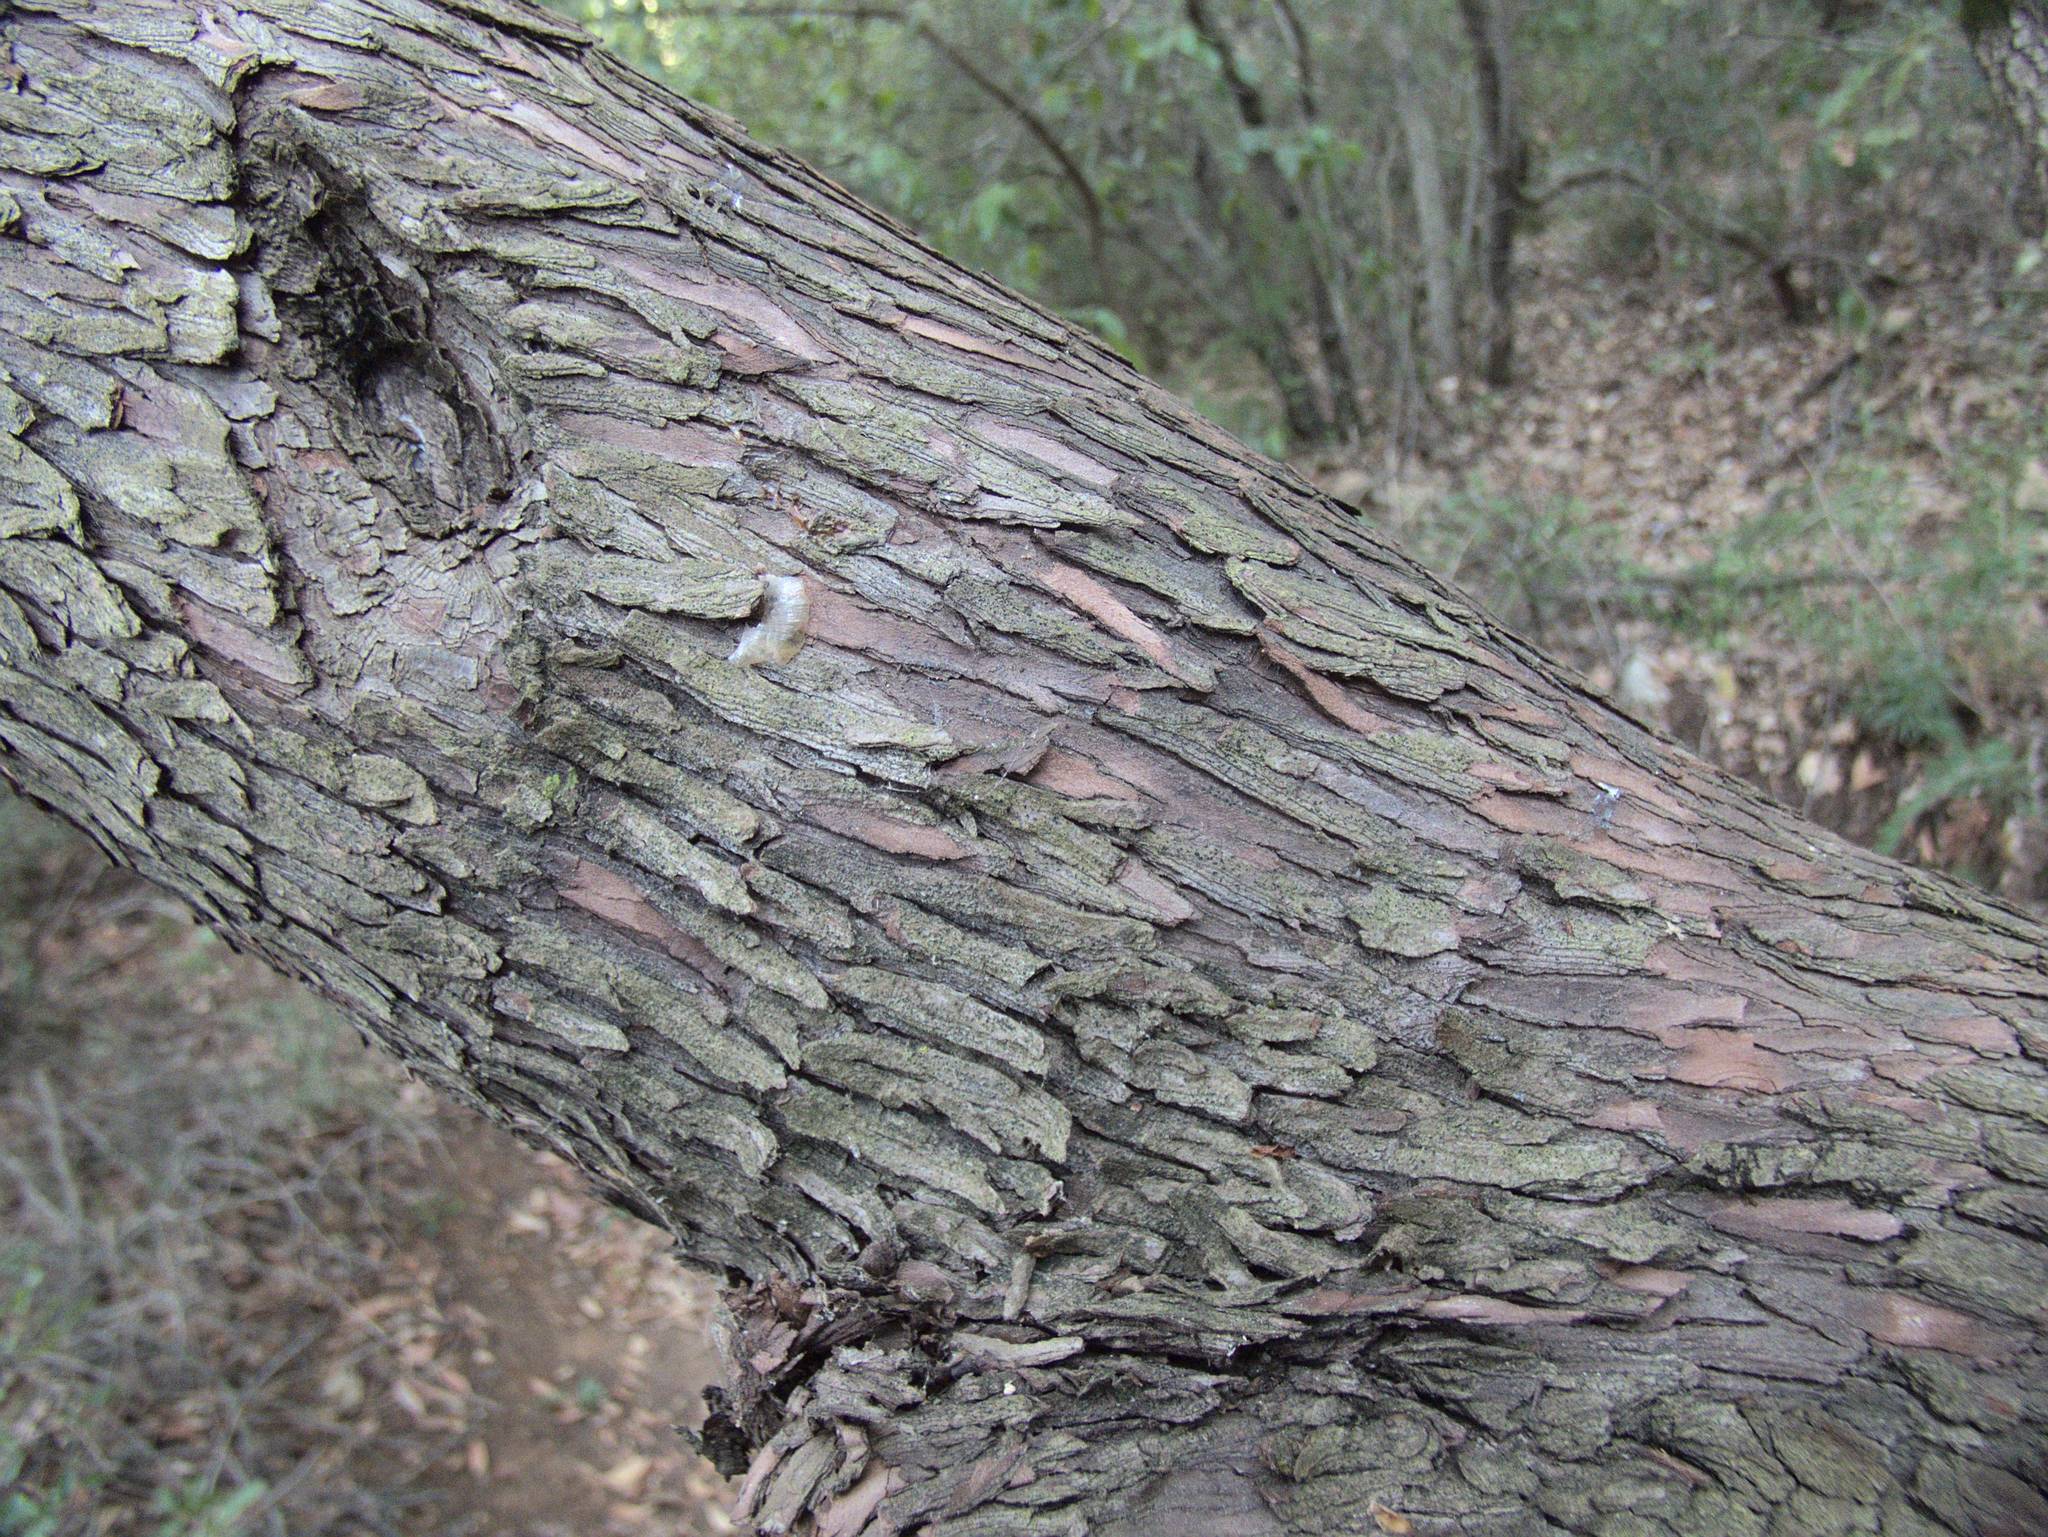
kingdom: Plantae
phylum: Tracheophyta
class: Magnoliopsida
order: Ericales
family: Ericaceae
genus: Arbutus
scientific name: Arbutus unedo
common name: Strawberry-tree
